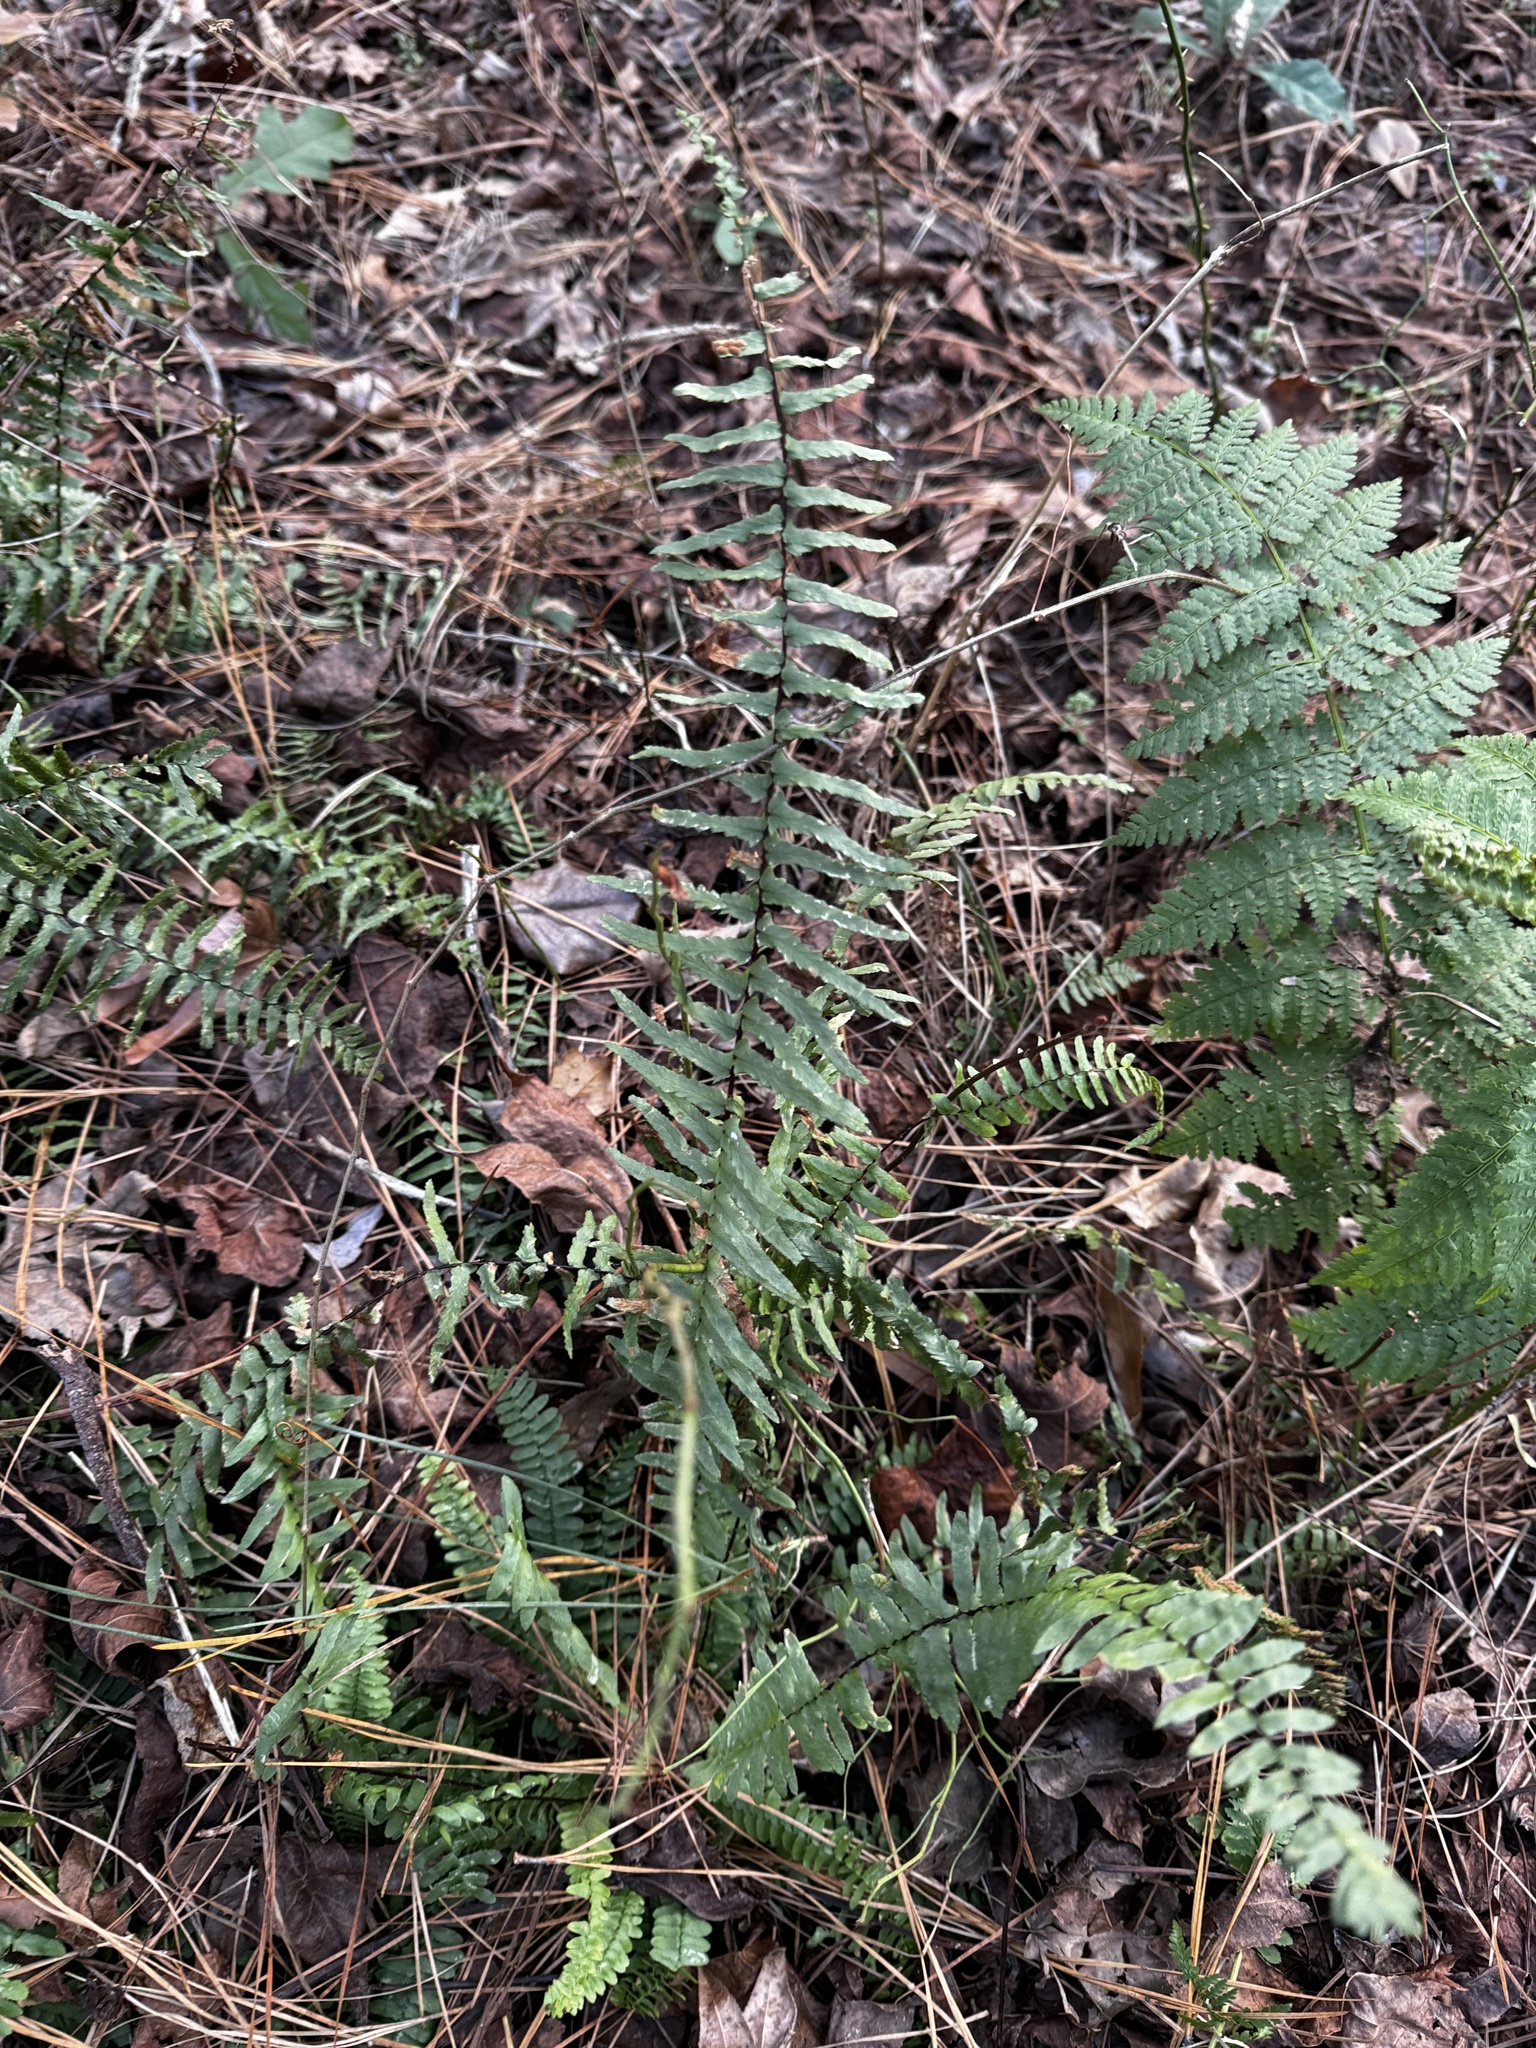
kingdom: Plantae
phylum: Tracheophyta
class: Polypodiopsida
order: Polypodiales
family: Aspleniaceae
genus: Asplenium
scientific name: Asplenium platyneuron
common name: Ebony spleenwort
